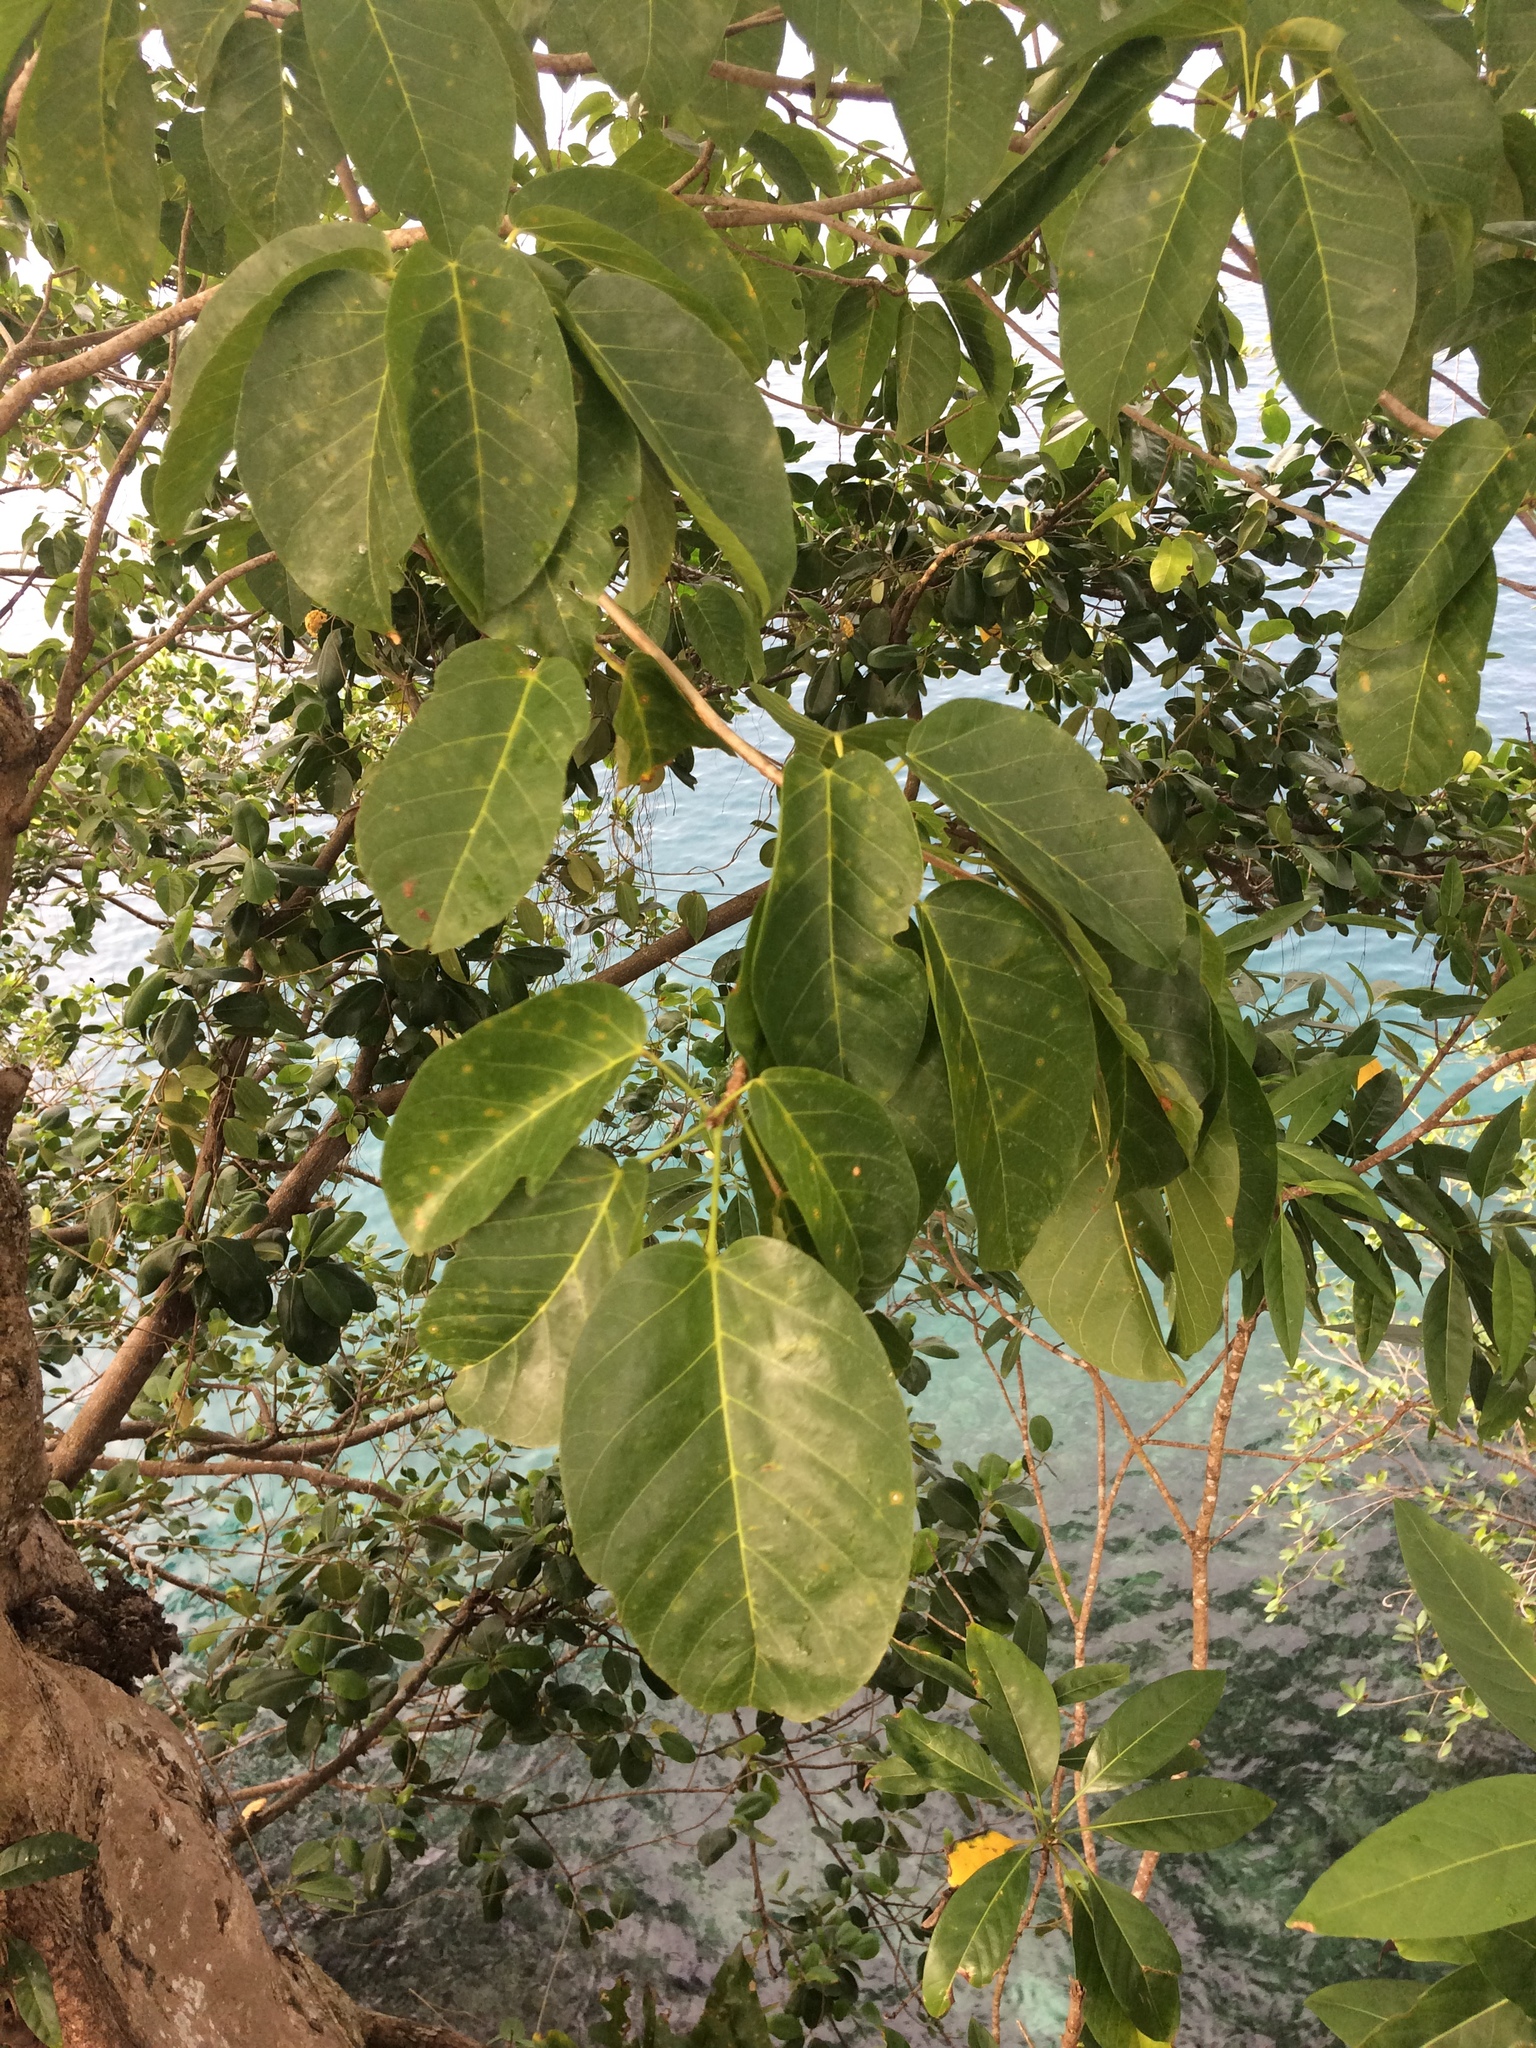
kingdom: Plantae
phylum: Tracheophyta
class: Magnoliopsida
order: Malvales
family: Malvaceae
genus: Sterculia
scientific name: Sterculia ceramica
